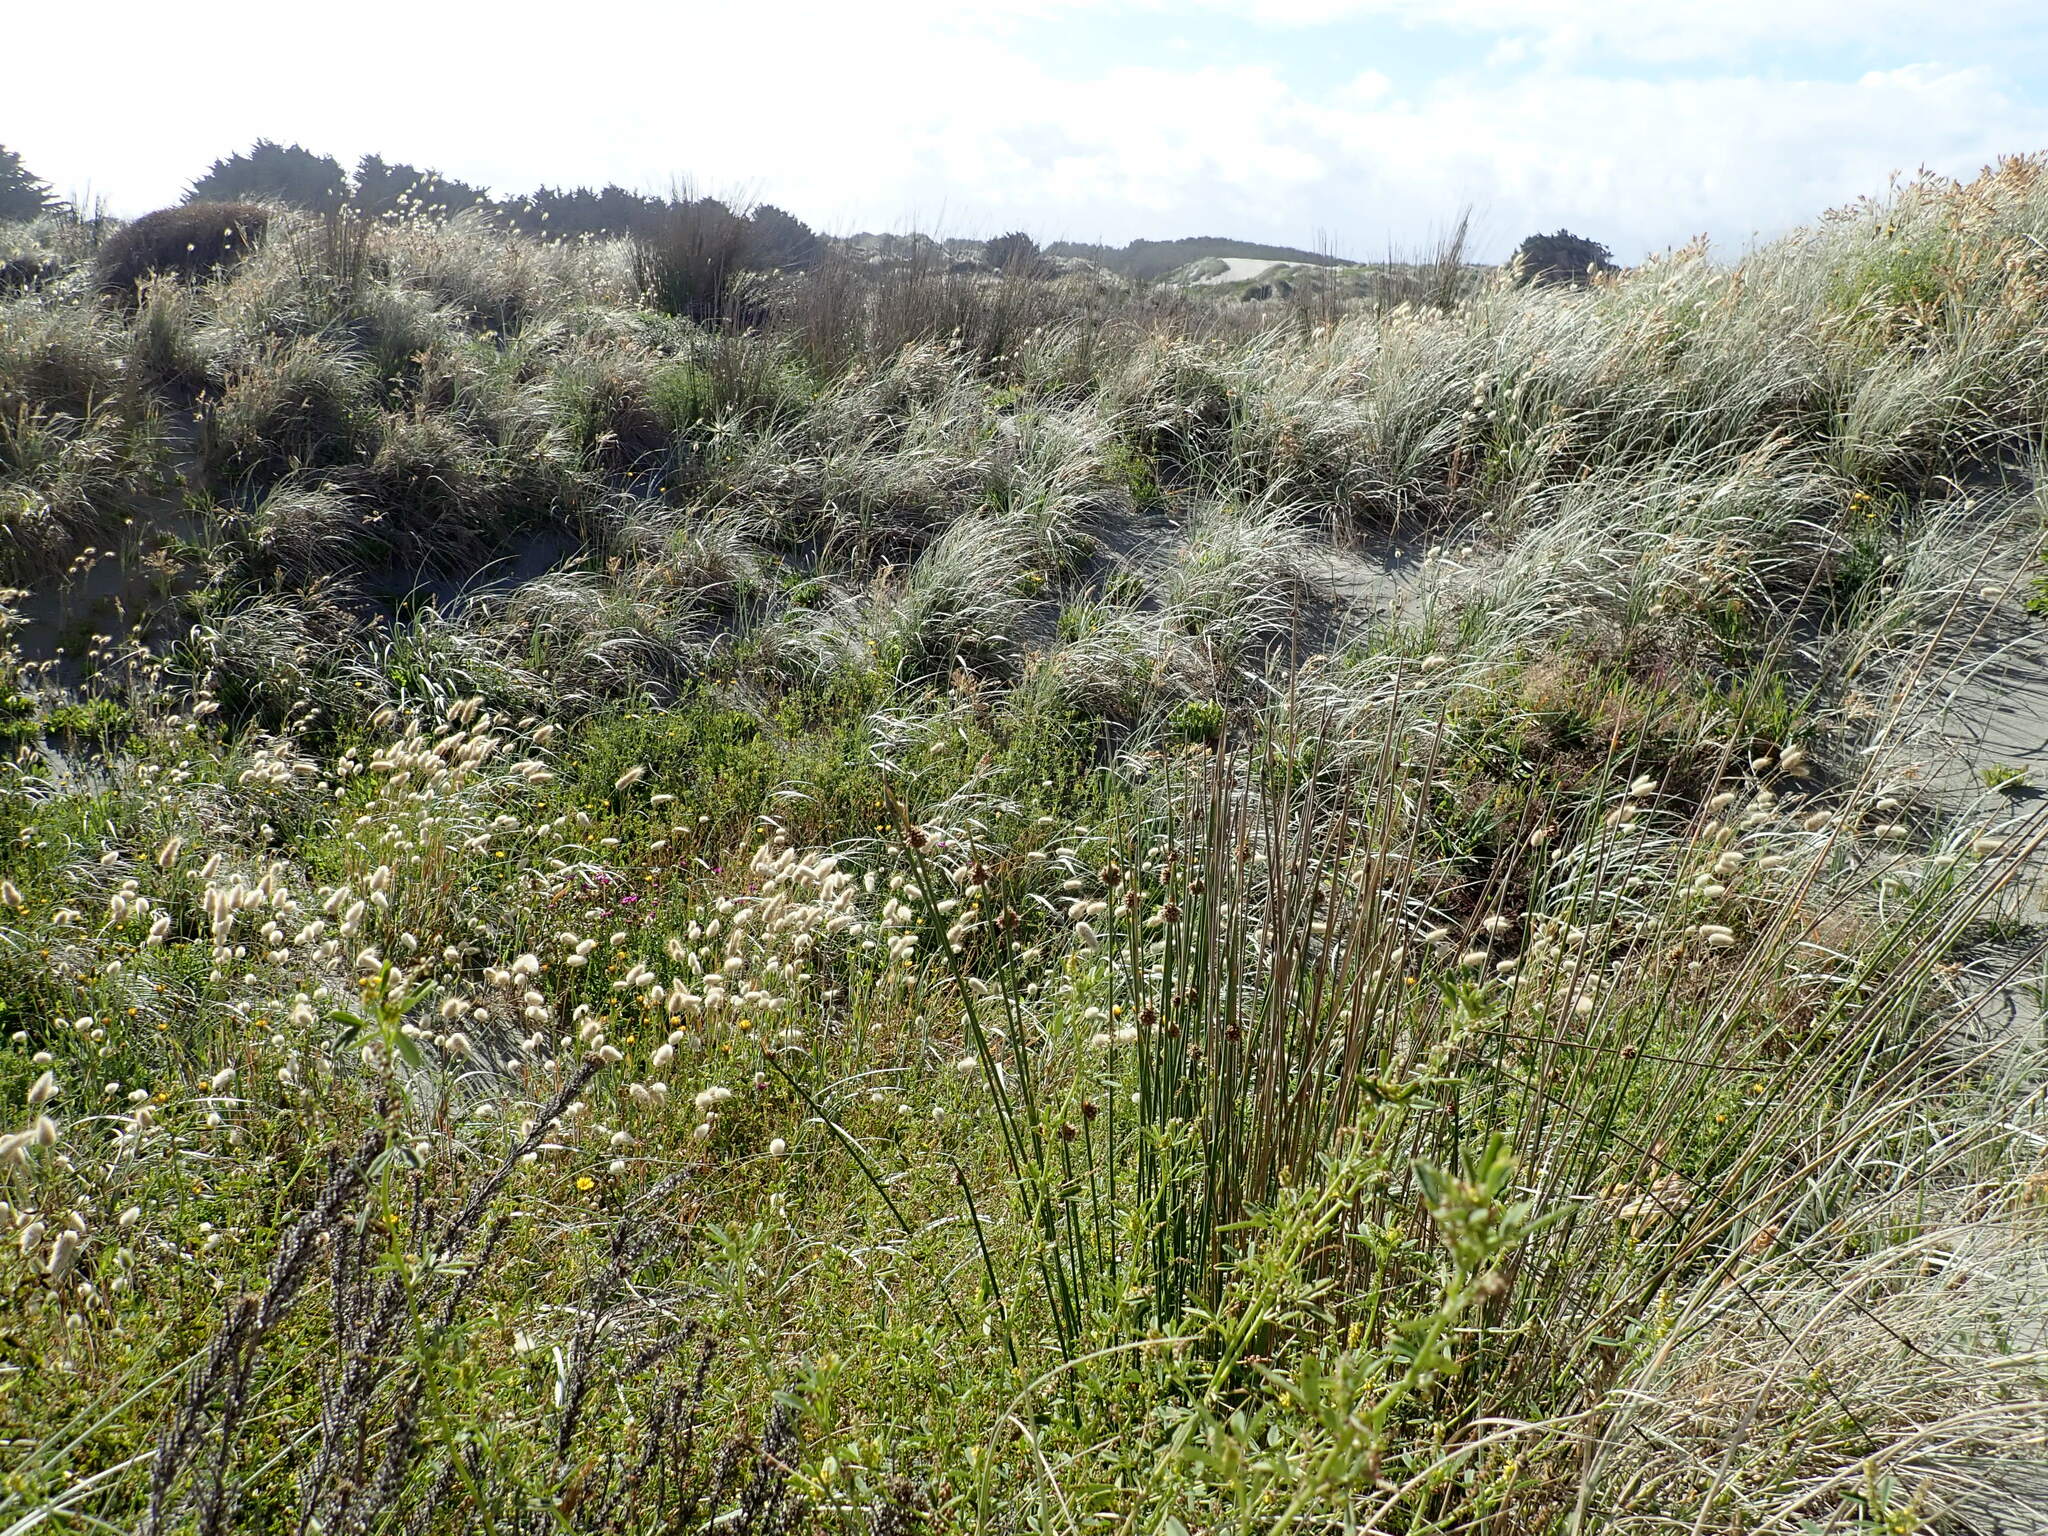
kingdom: Plantae
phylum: Tracheophyta
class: Liliopsida
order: Poales
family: Cyperaceae
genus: Ficinia
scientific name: Ficinia nodosa
